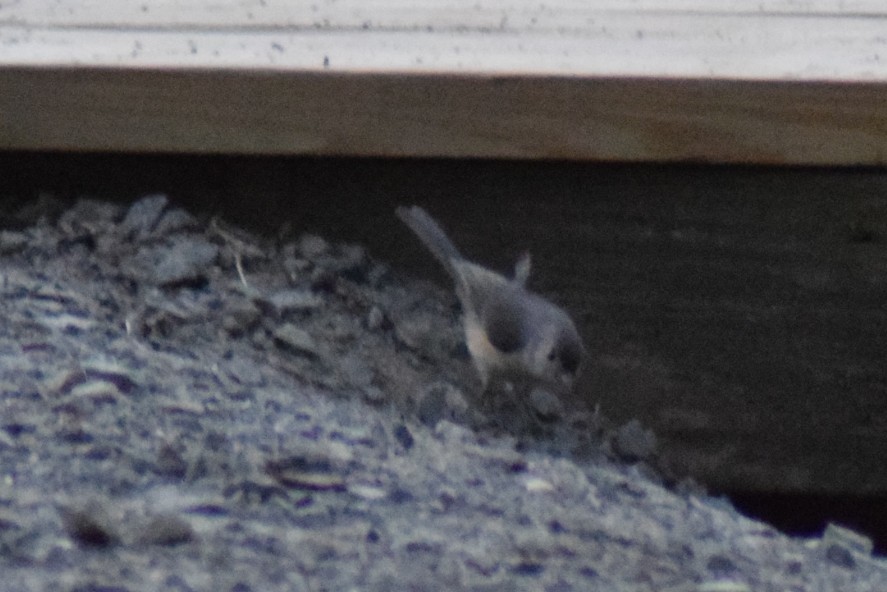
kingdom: Animalia
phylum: Chordata
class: Aves
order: Passeriformes
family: Paridae
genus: Baeolophus
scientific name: Baeolophus bicolor
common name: Tufted titmouse
